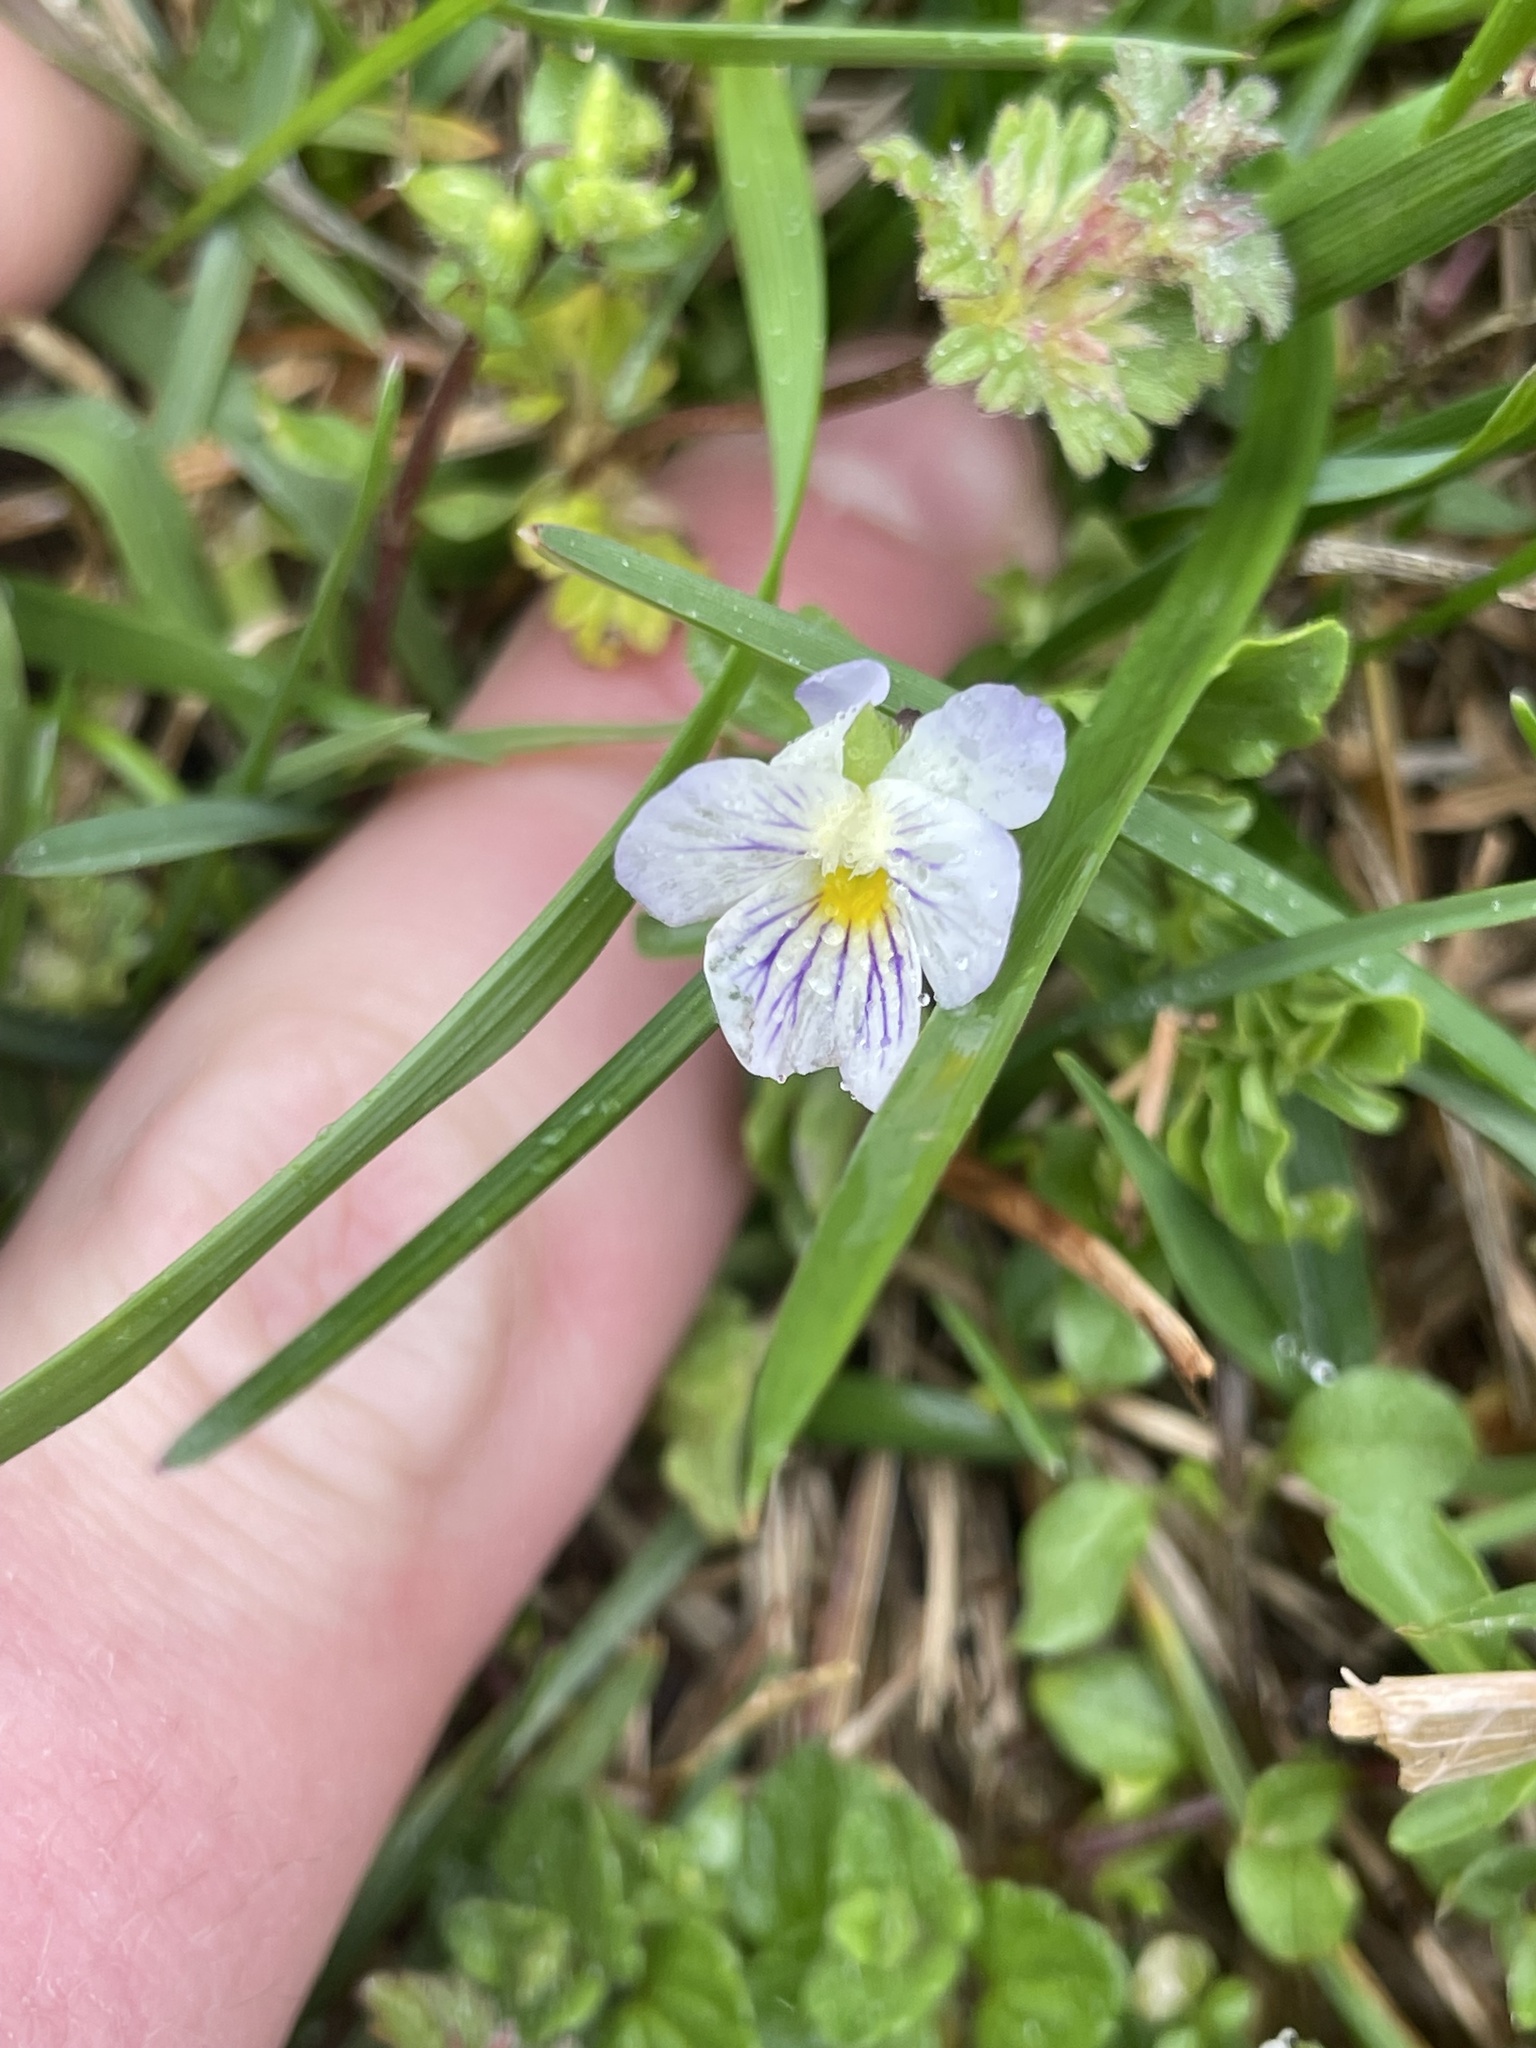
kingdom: Plantae
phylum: Tracheophyta
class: Magnoliopsida
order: Malpighiales
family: Violaceae
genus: Viola
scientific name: Viola rafinesquei
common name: American field pansy
